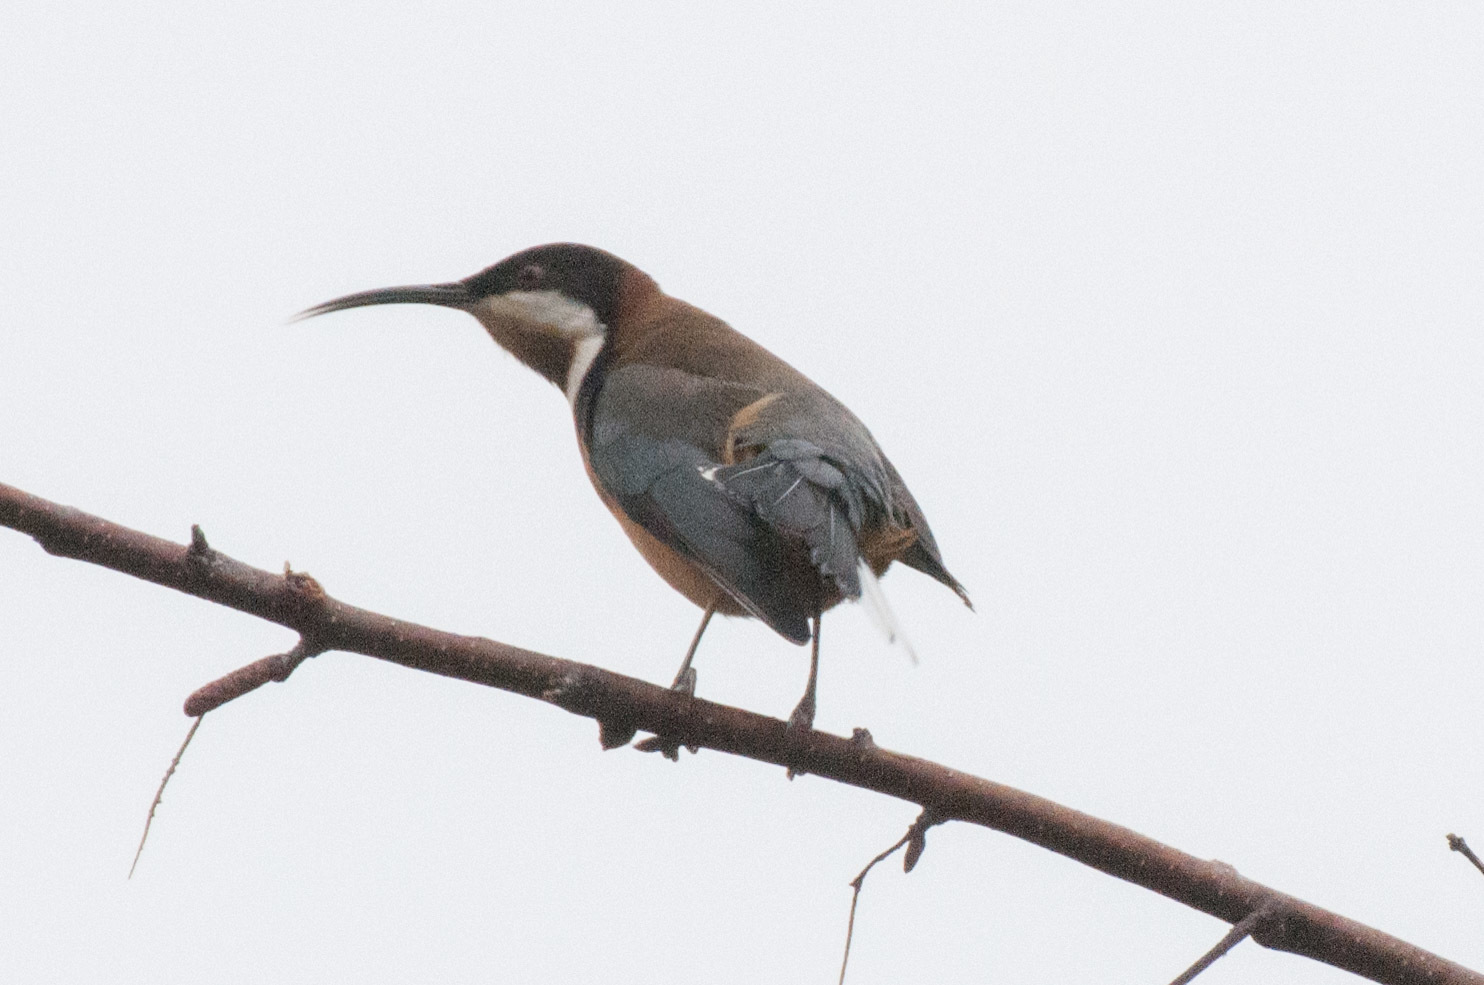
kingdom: Animalia
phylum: Chordata
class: Aves
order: Passeriformes
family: Meliphagidae
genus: Acanthorhynchus
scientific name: Acanthorhynchus tenuirostris
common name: Eastern spinebill
